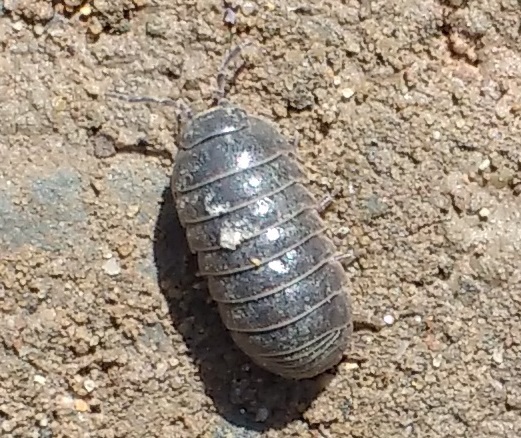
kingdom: Animalia
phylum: Arthropoda
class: Malacostraca
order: Isopoda
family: Armadillidiidae
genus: Armadillidium
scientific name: Armadillidium vulgare
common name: Common pill woodlouse
